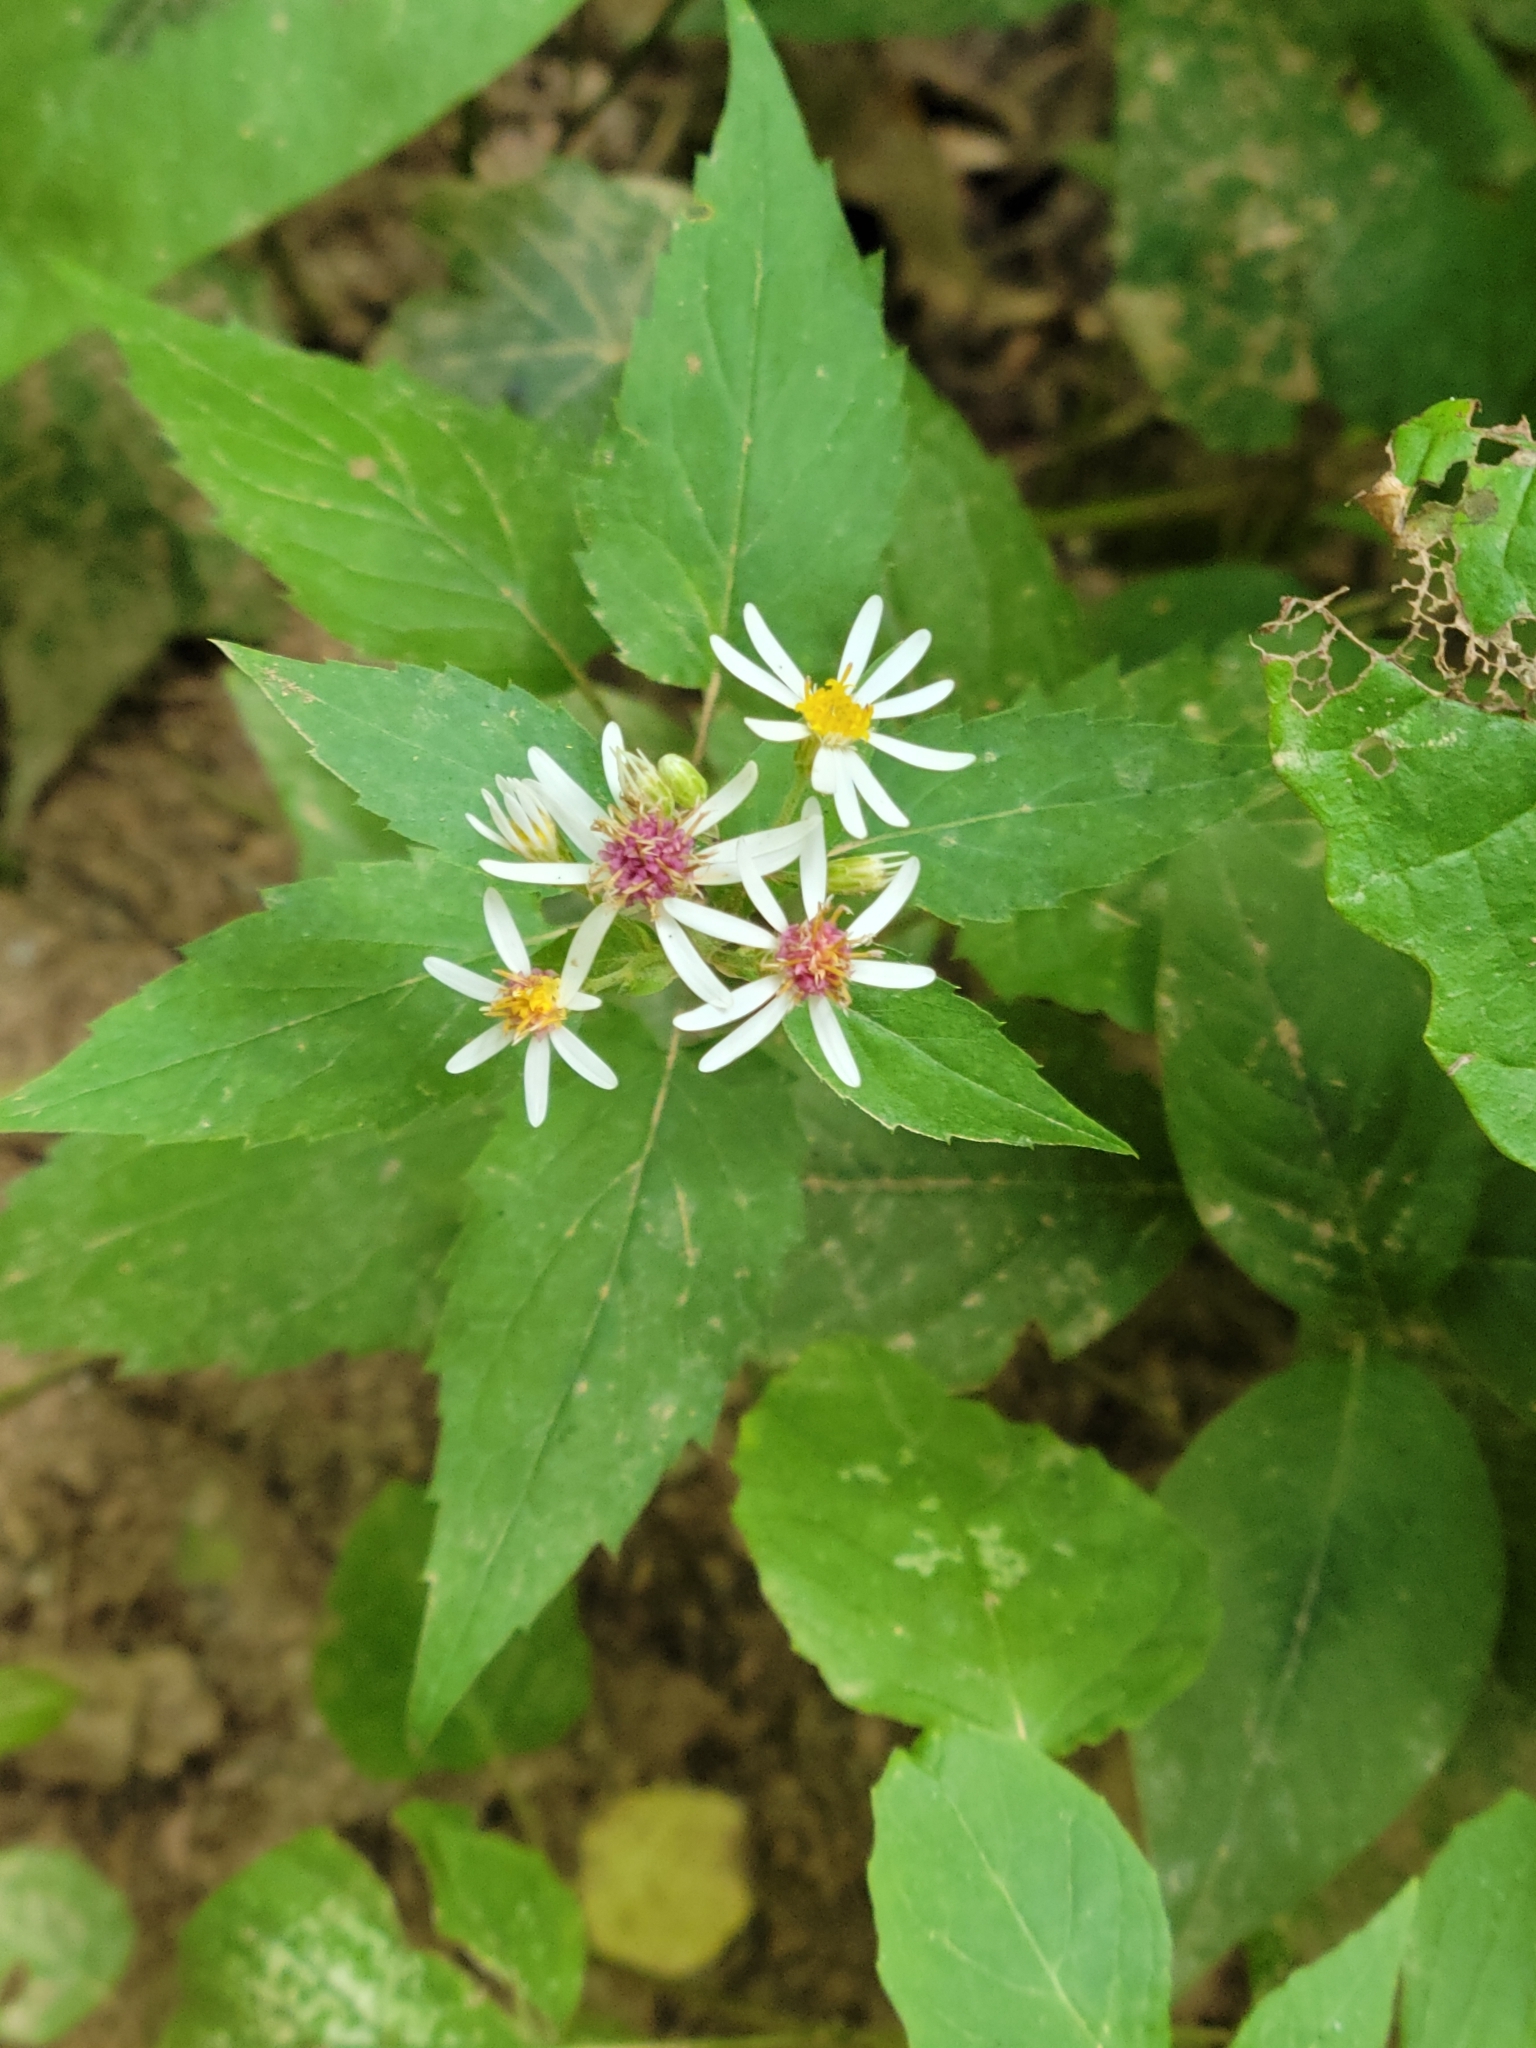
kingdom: Plantae
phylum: Tracheophyta
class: Magnoliopsida
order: Asterales
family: Asteraceae
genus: Eurybia
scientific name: Eurybia divaricata
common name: White wood aster
